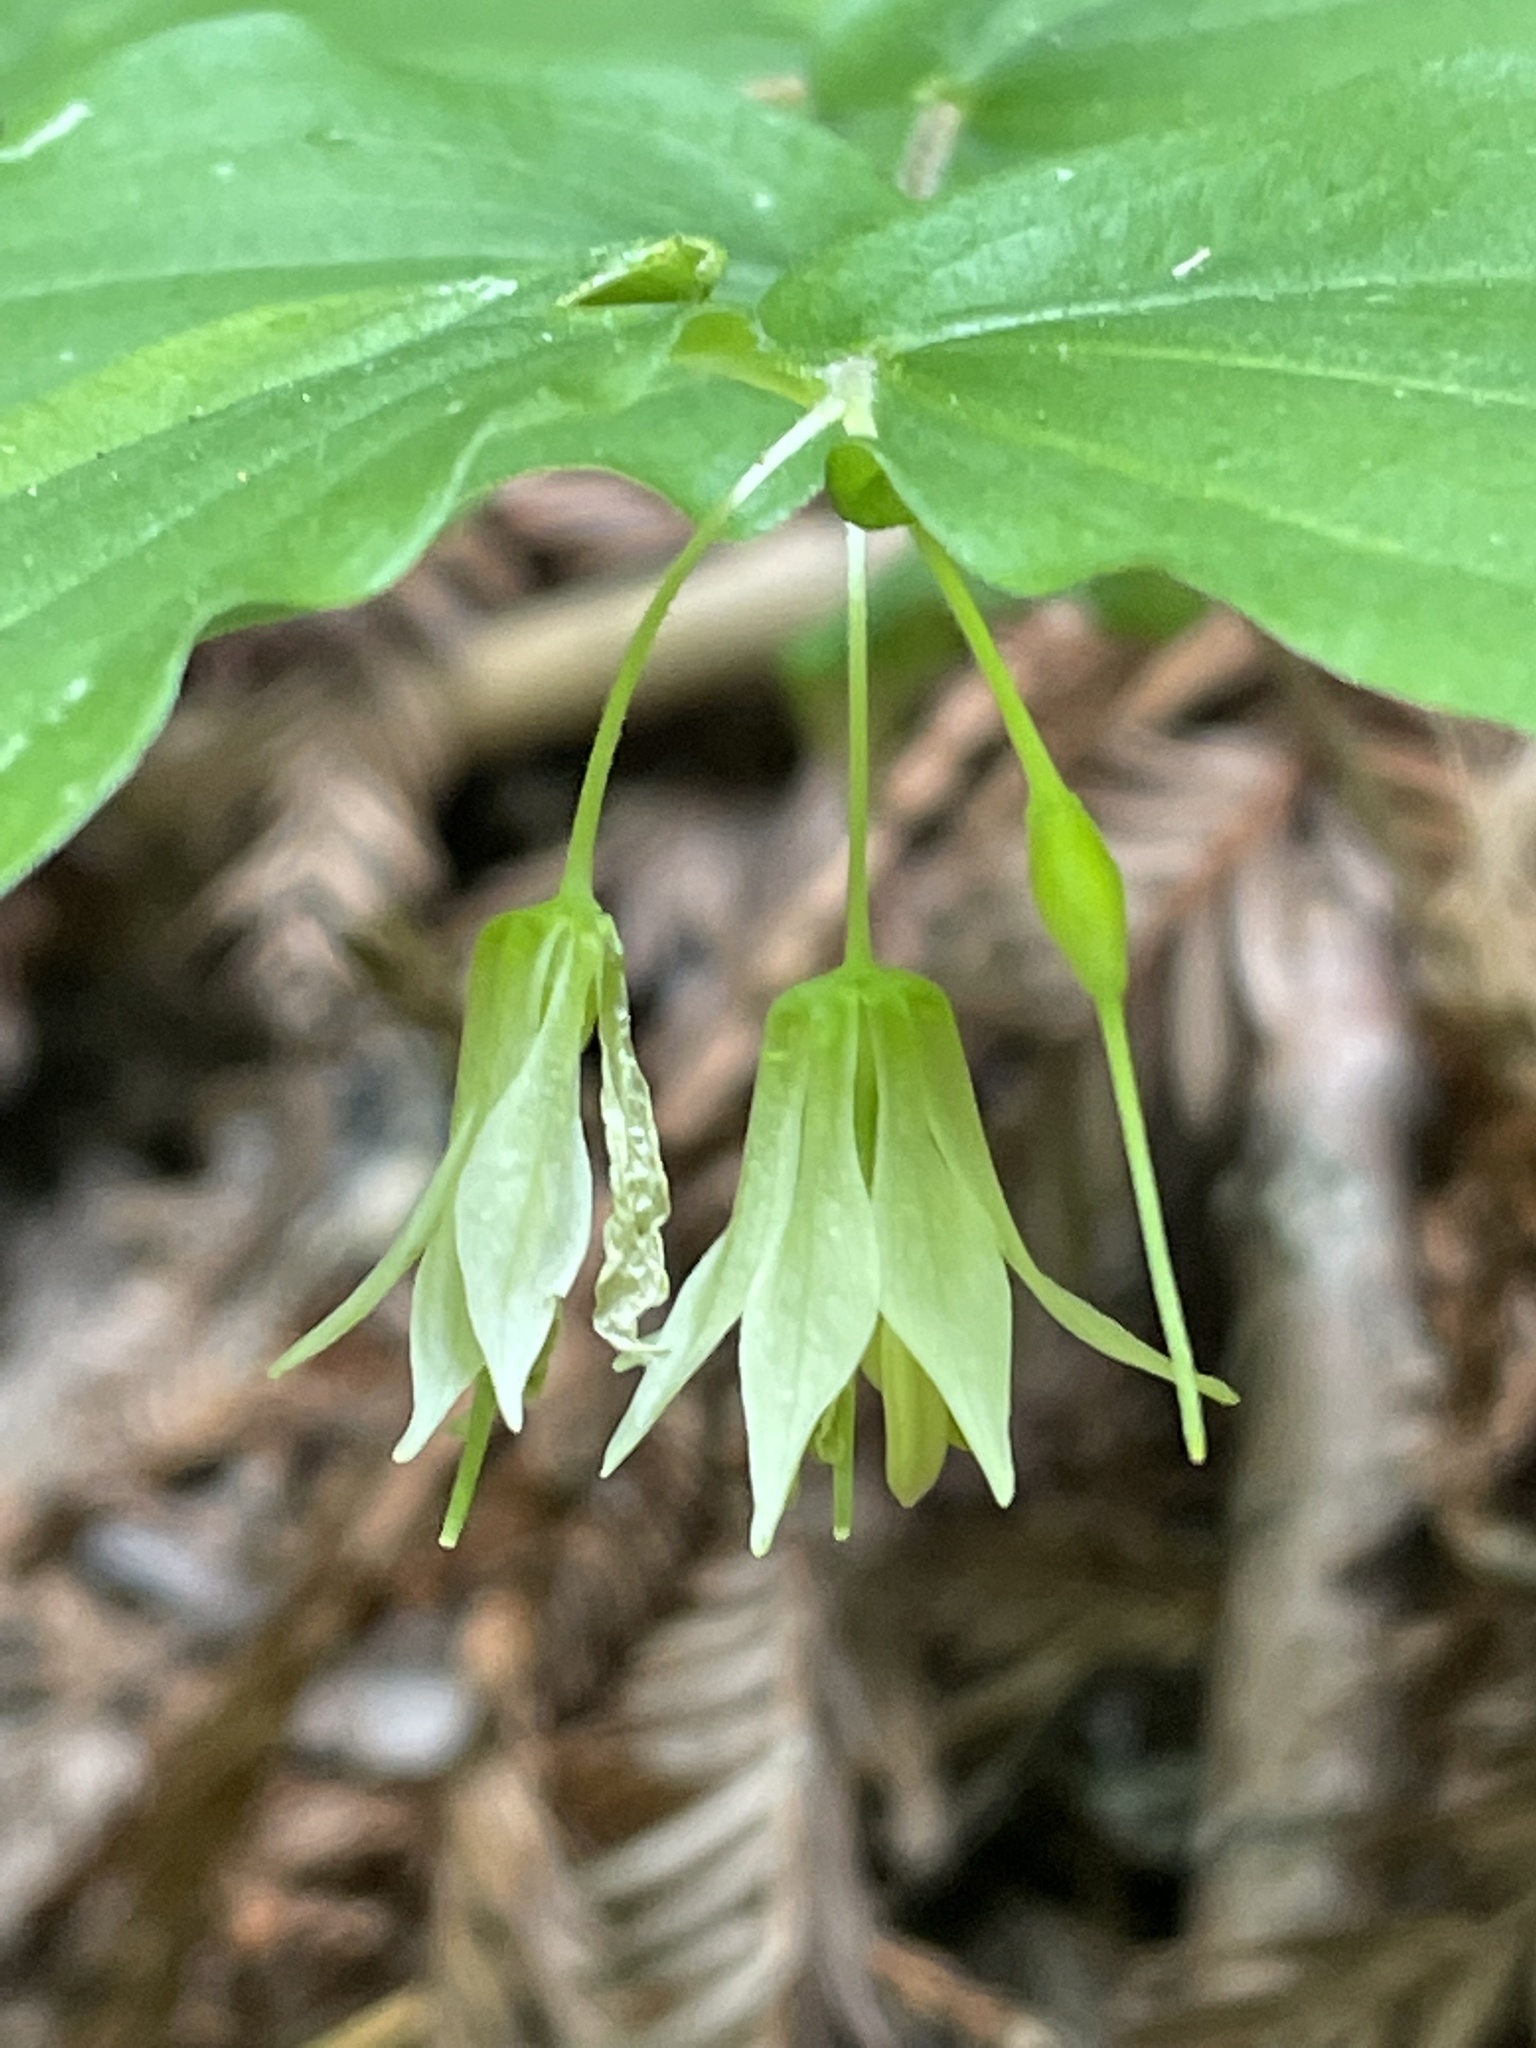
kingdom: Plantae
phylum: Tracheophyta
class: Liliopsida
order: Liliales
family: Liliaceae
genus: Prosartes
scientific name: Prosartes hookeri
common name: Fairy-bells
